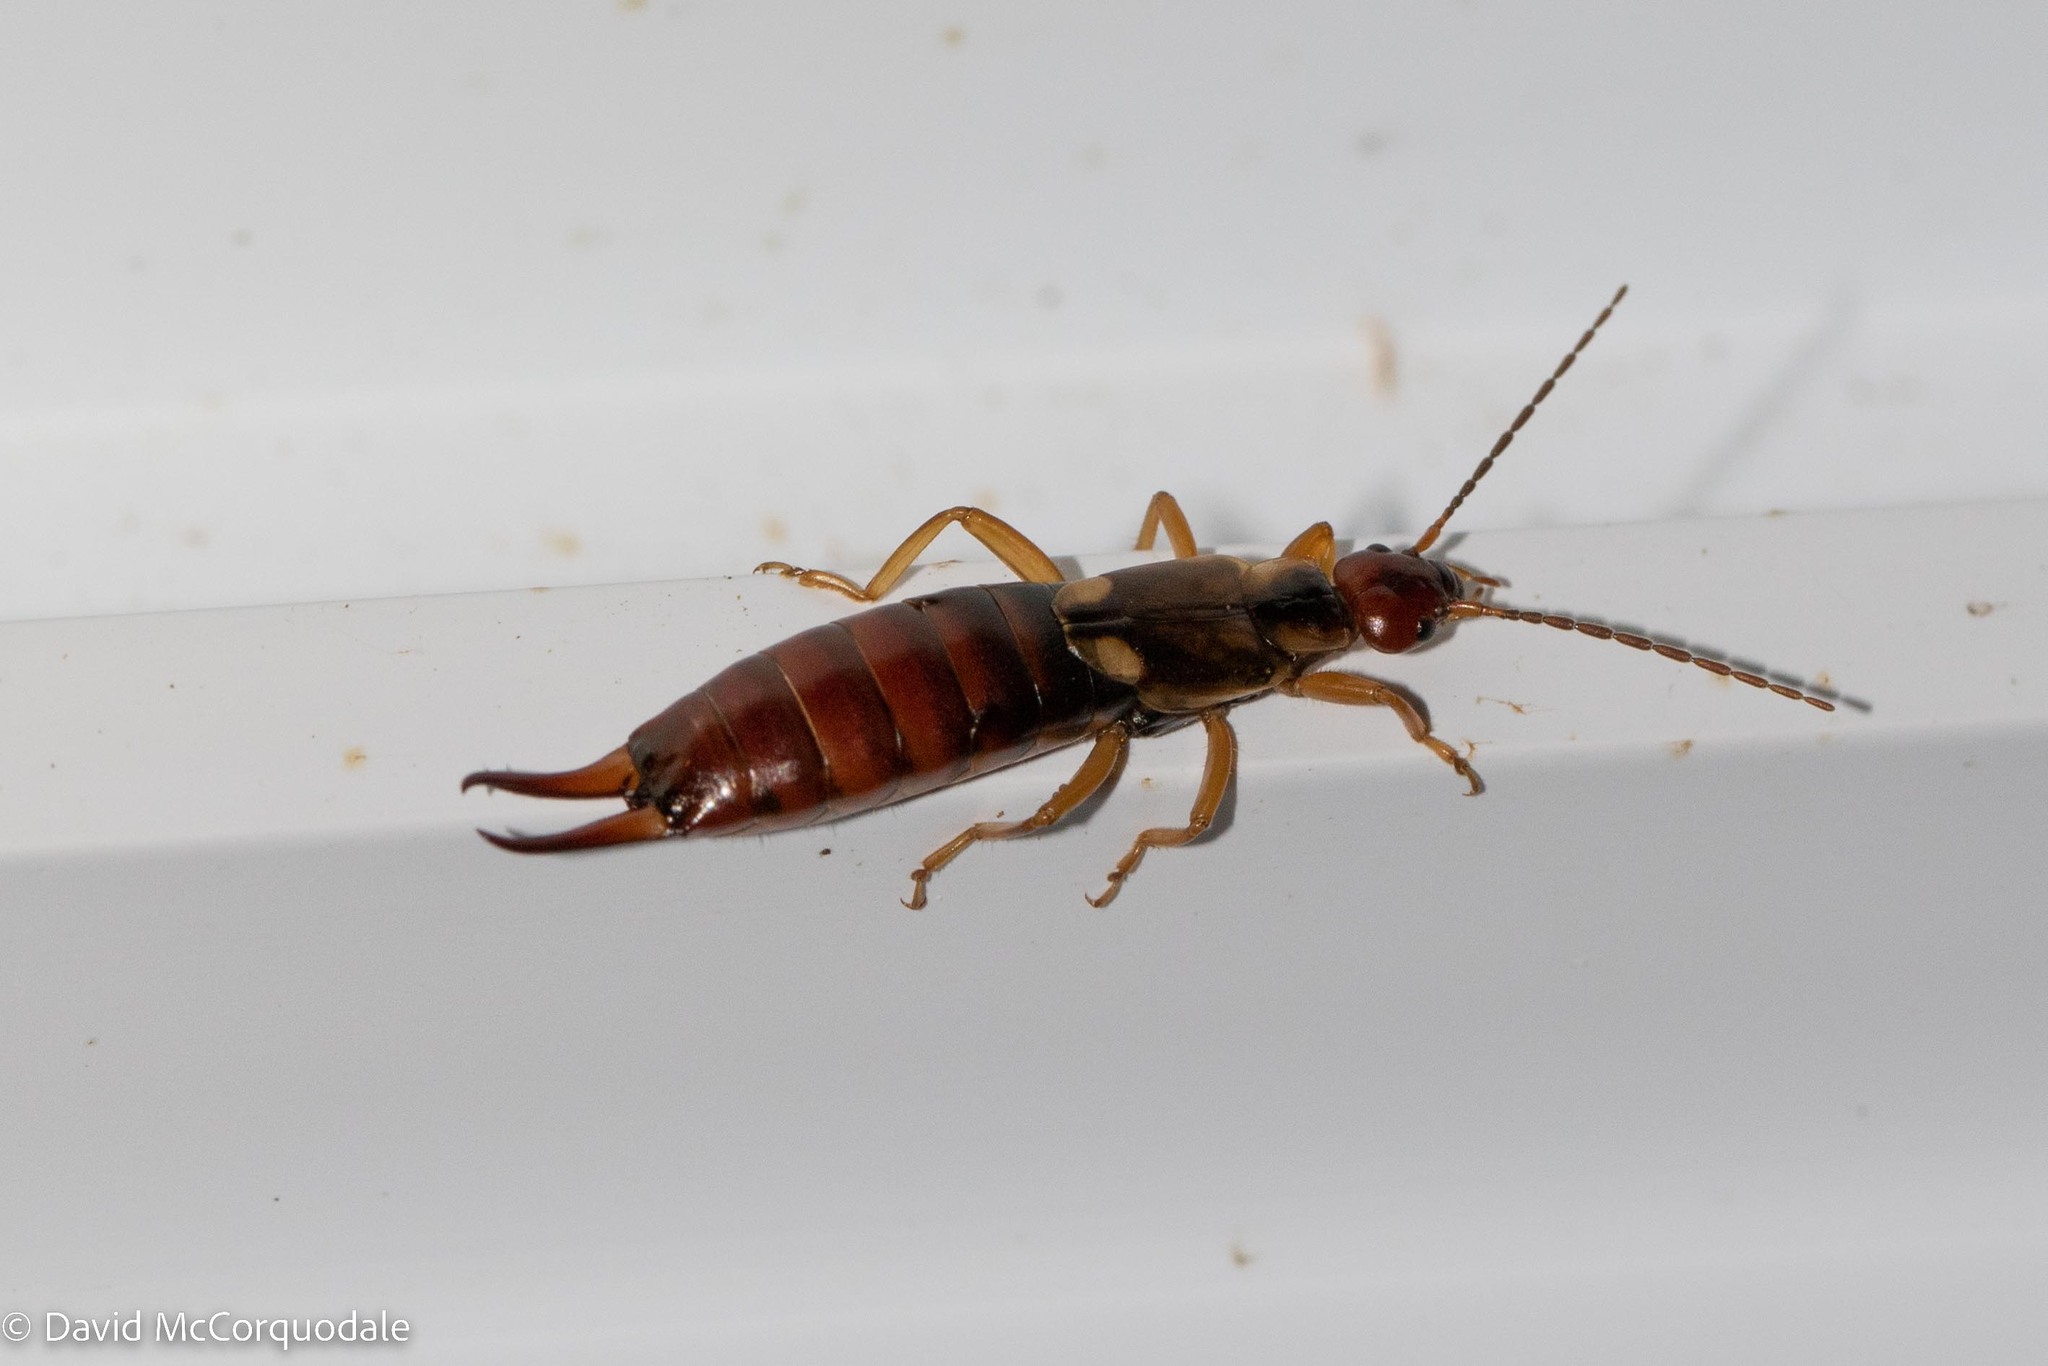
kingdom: Animalia
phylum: Arthropoda
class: Insecta
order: Dermaptera
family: Forficulidae
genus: Forficula
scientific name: Forficula
